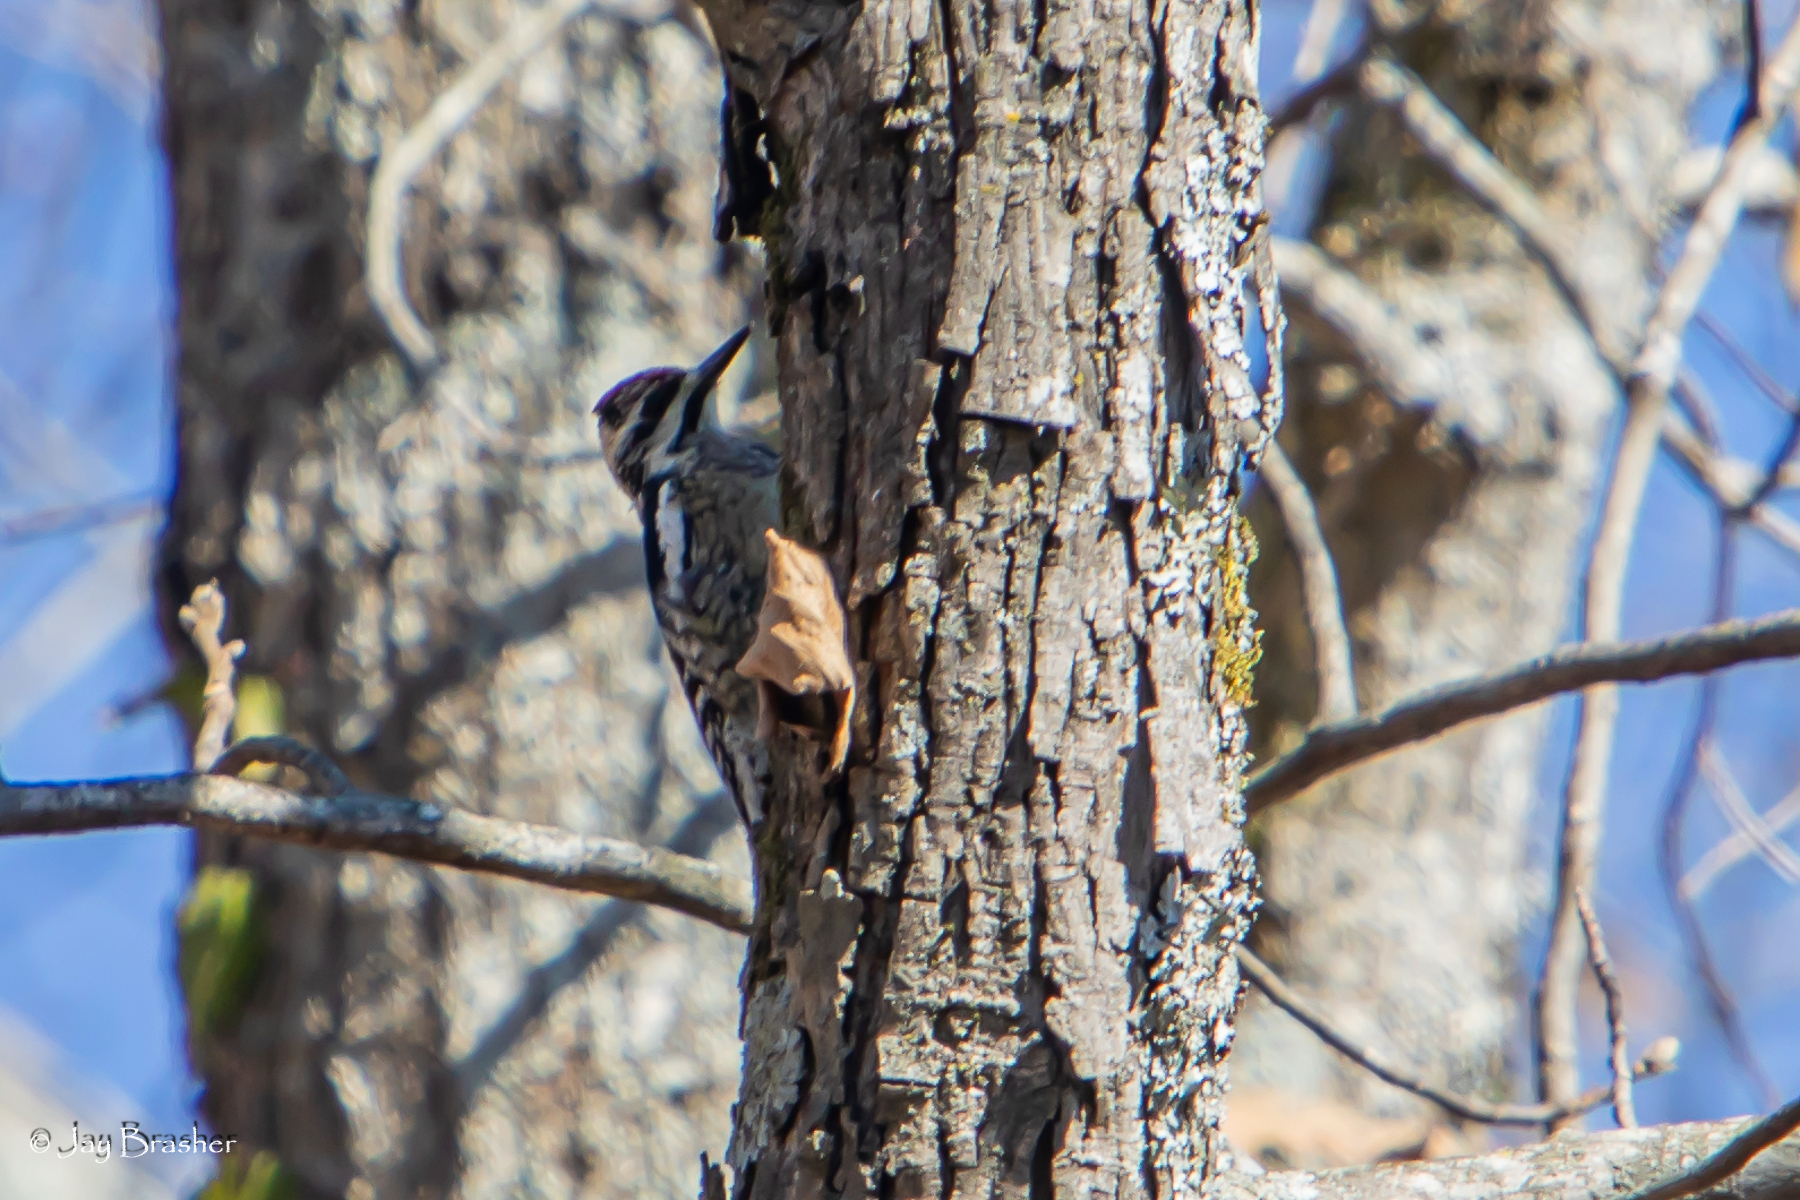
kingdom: Animalia
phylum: Chordata
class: Aves
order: Piciformes
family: Picidae
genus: Sphyrapicus
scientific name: Sphyrapicus varius
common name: Yellow-bellied sapsucker
